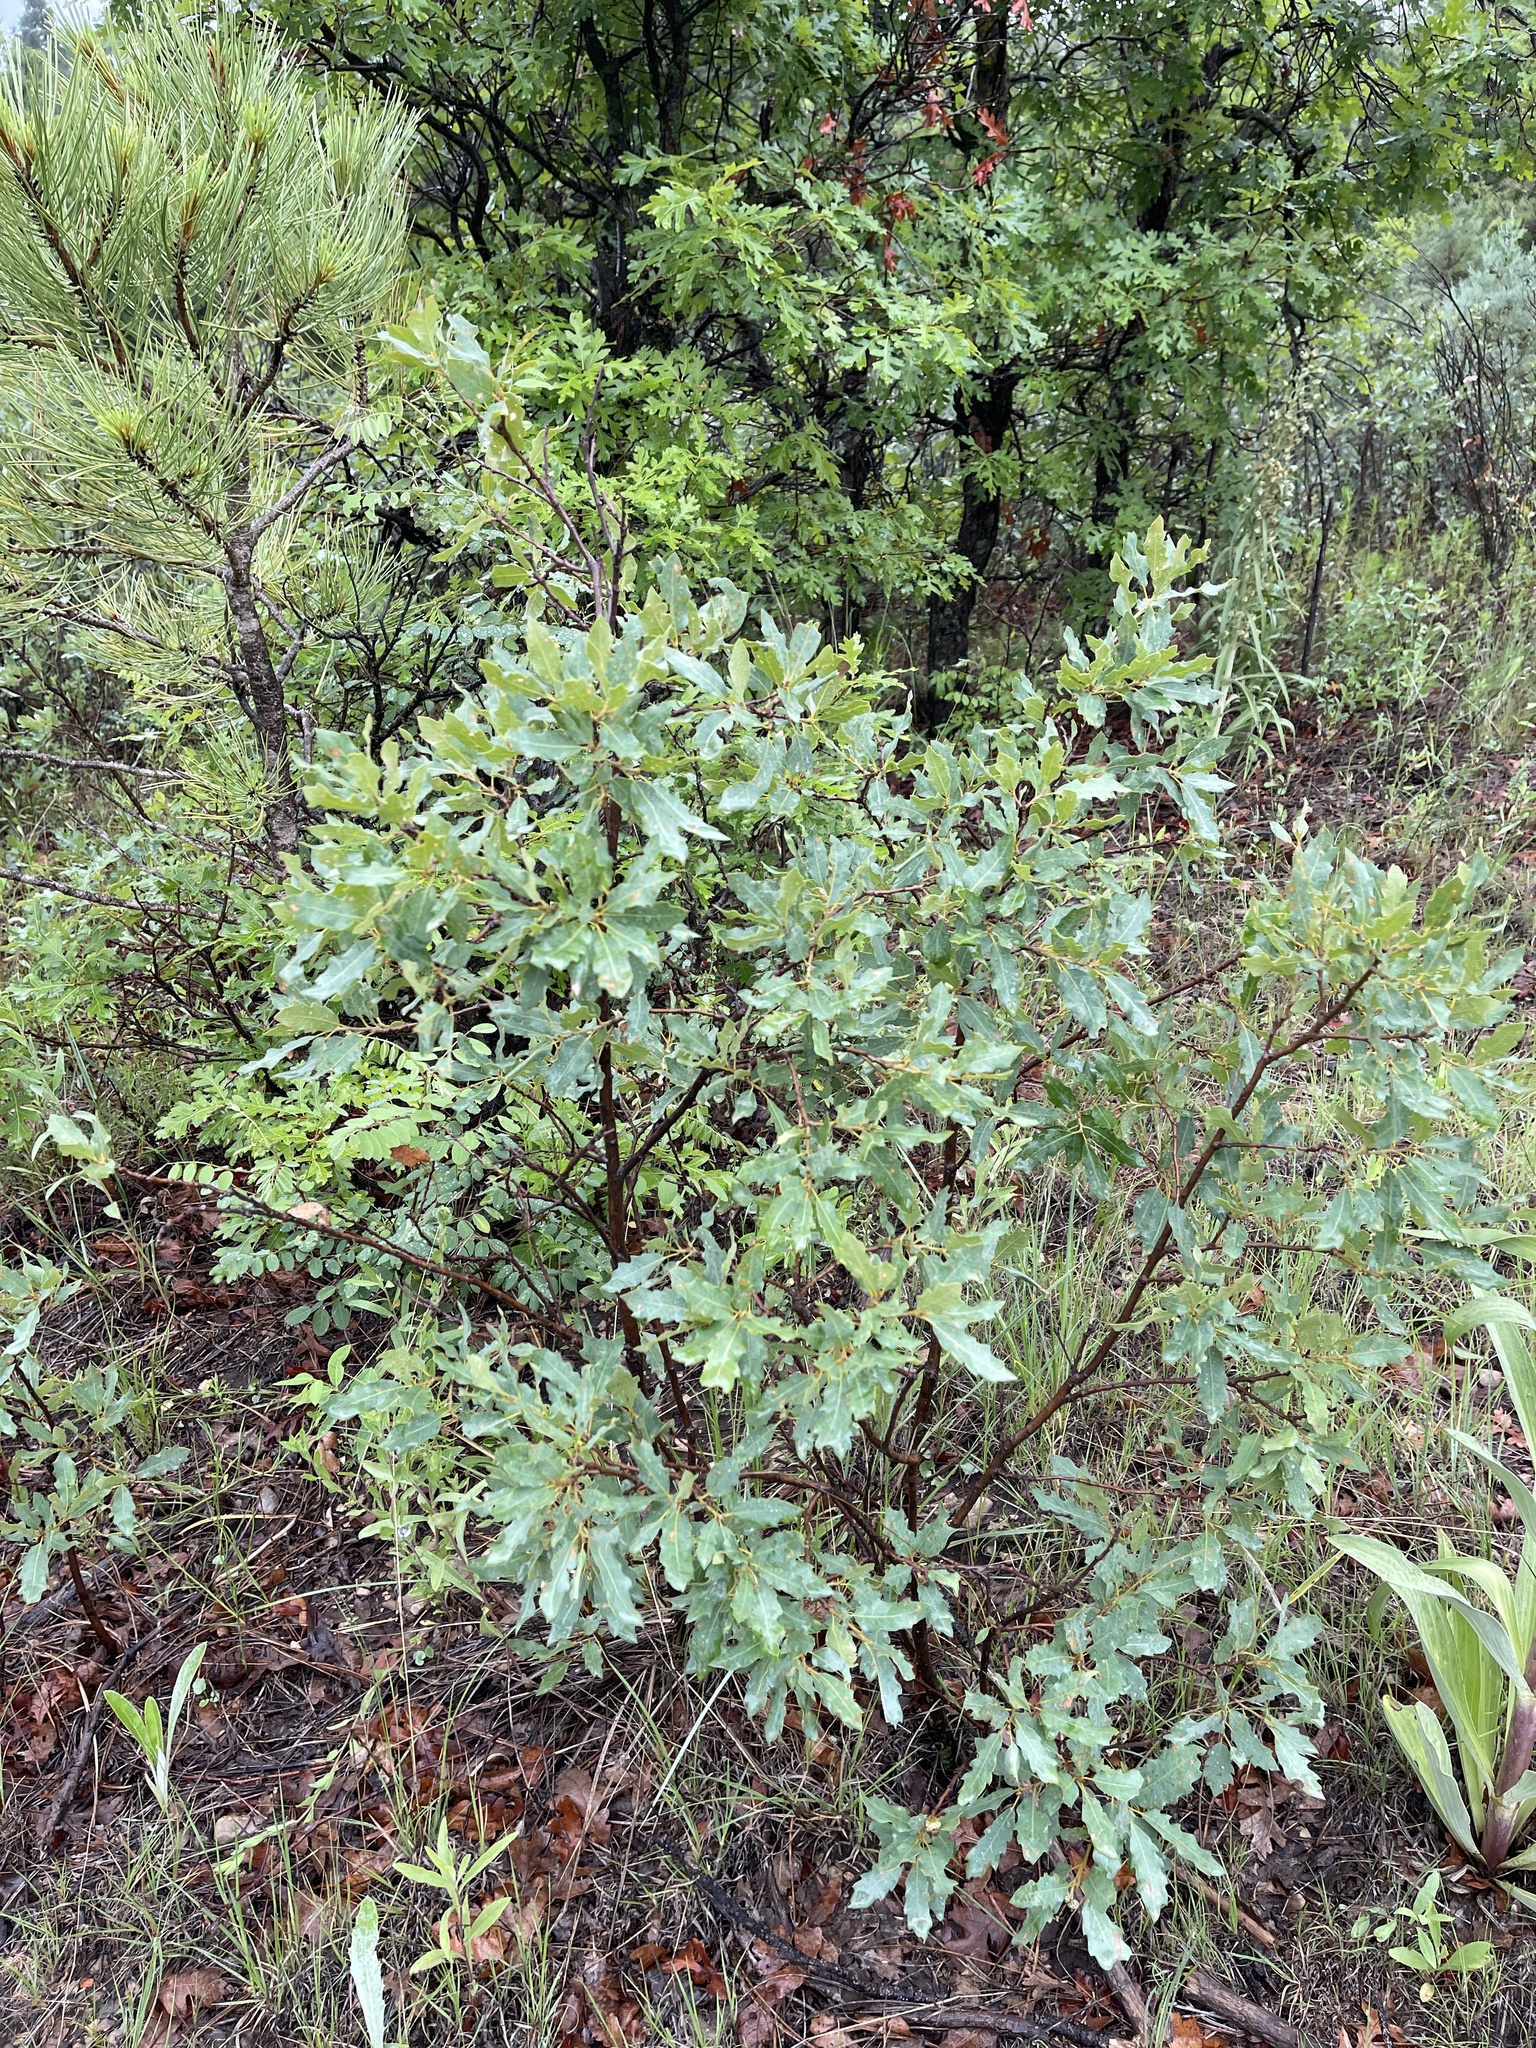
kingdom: Plantae
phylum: Tracheophyta
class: Magnoliopsida
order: Fagales
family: Fagaceae
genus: Quercus
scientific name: Quercus undulata
